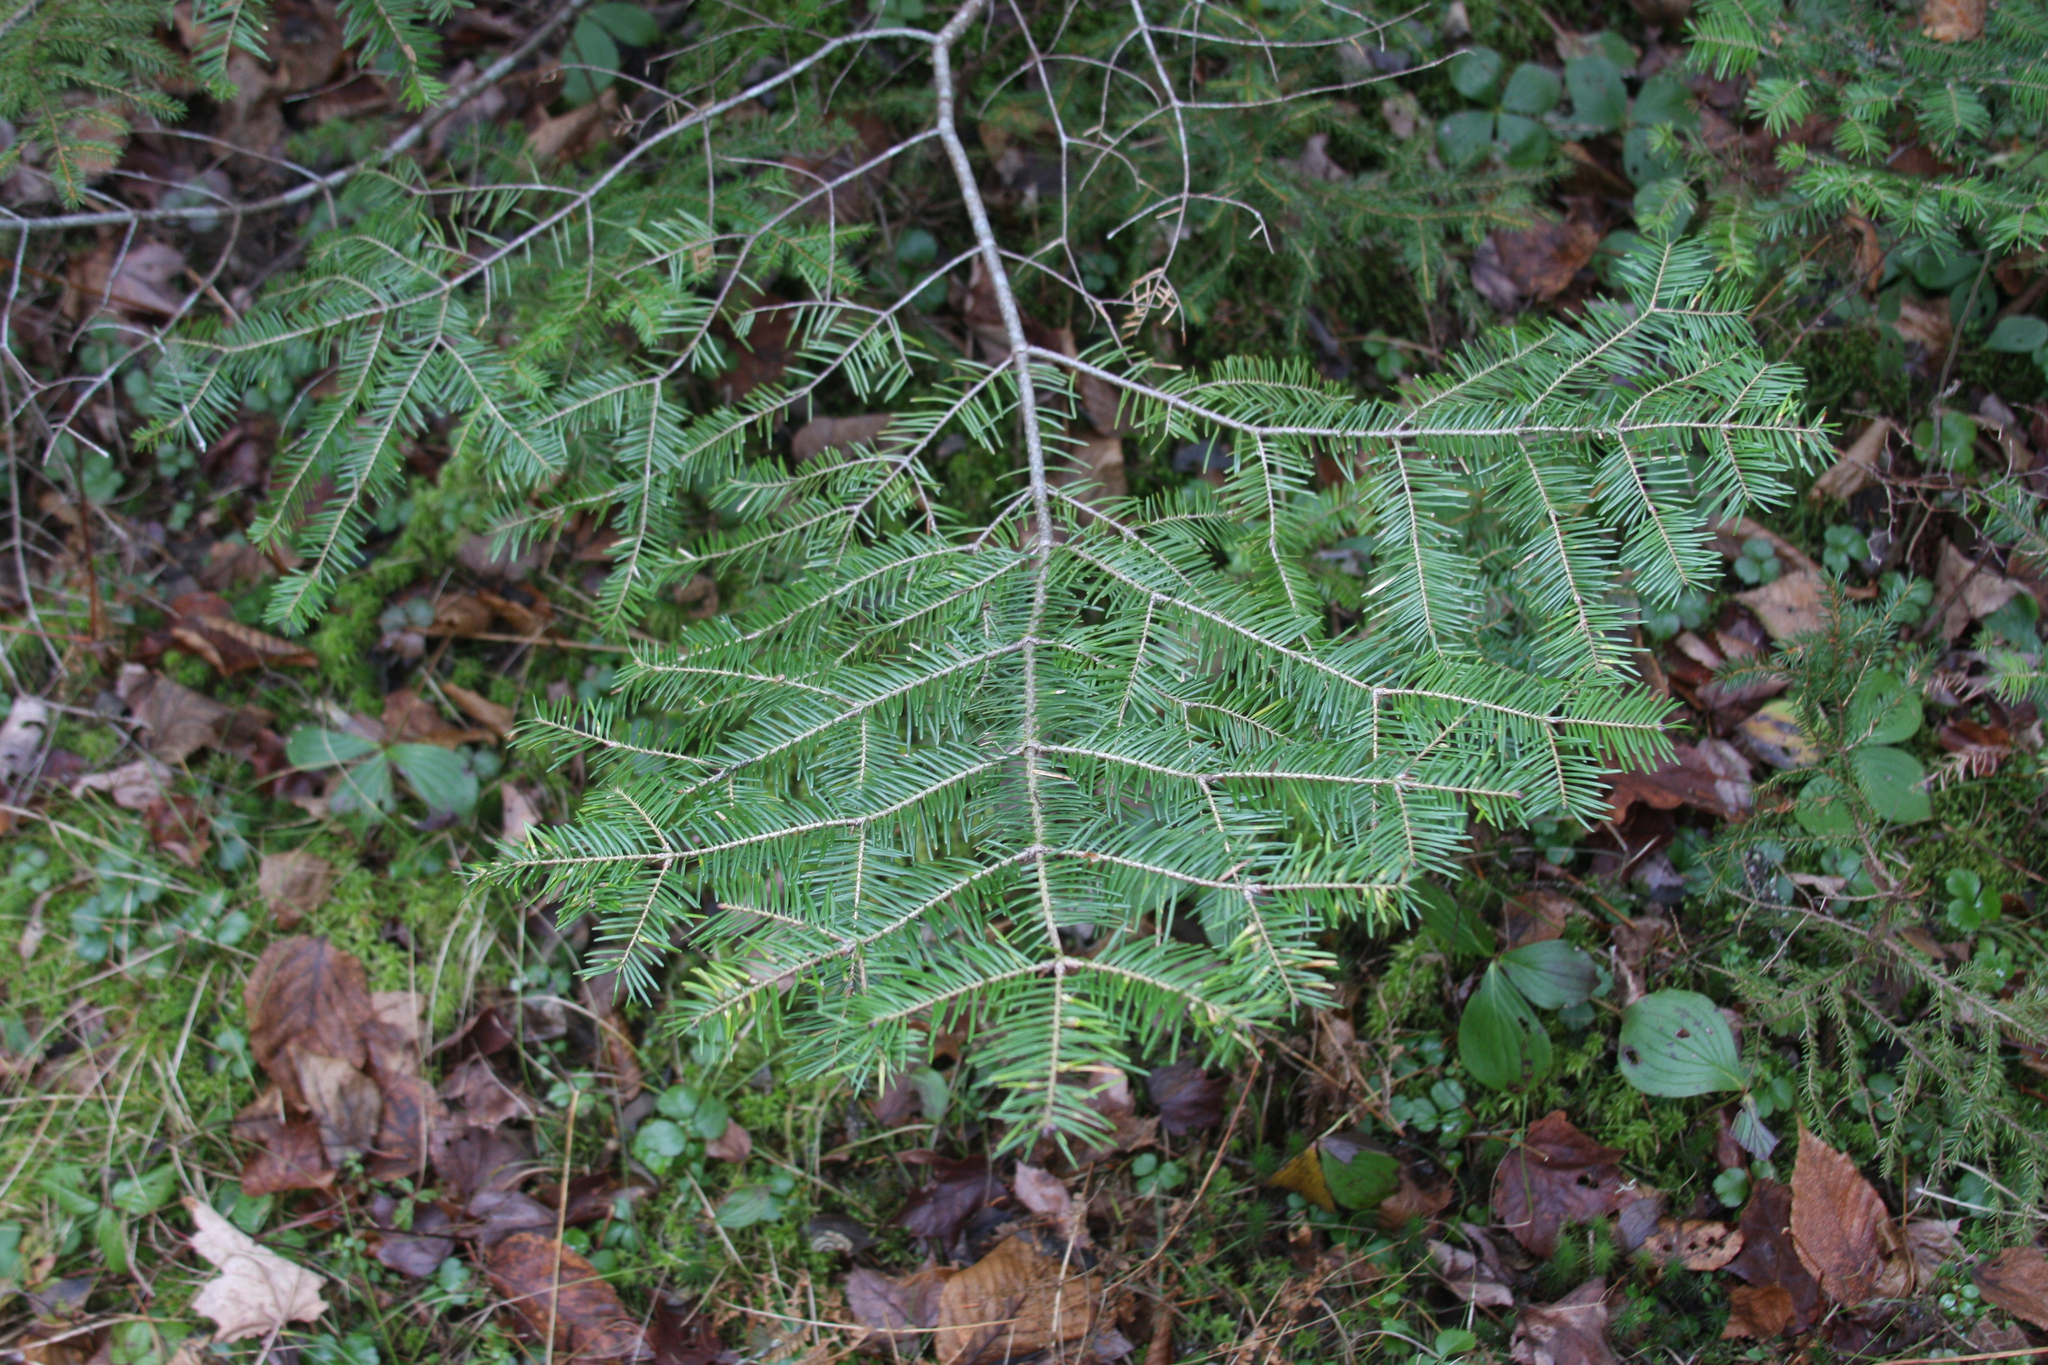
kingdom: Plantae
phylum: Tracheophyta
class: Pinopsida
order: Pinales
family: Pinaceae
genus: Abies
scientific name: Abies balsamea
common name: Balsam fir
